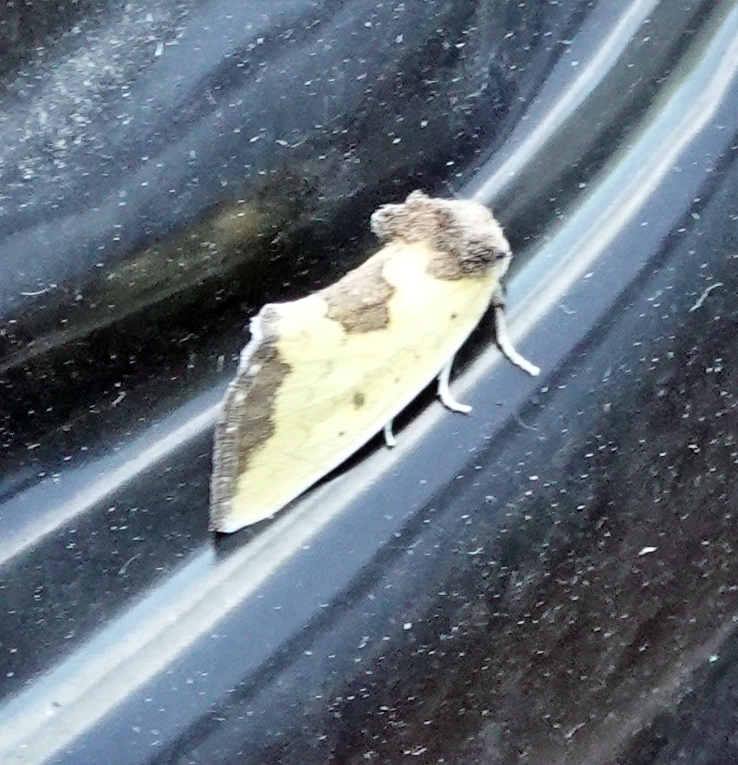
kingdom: Animalia
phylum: Arthropoda
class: Insecta
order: Lepidoptera
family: Noctuidae
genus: Stiria
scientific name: Stiria rugifrons
